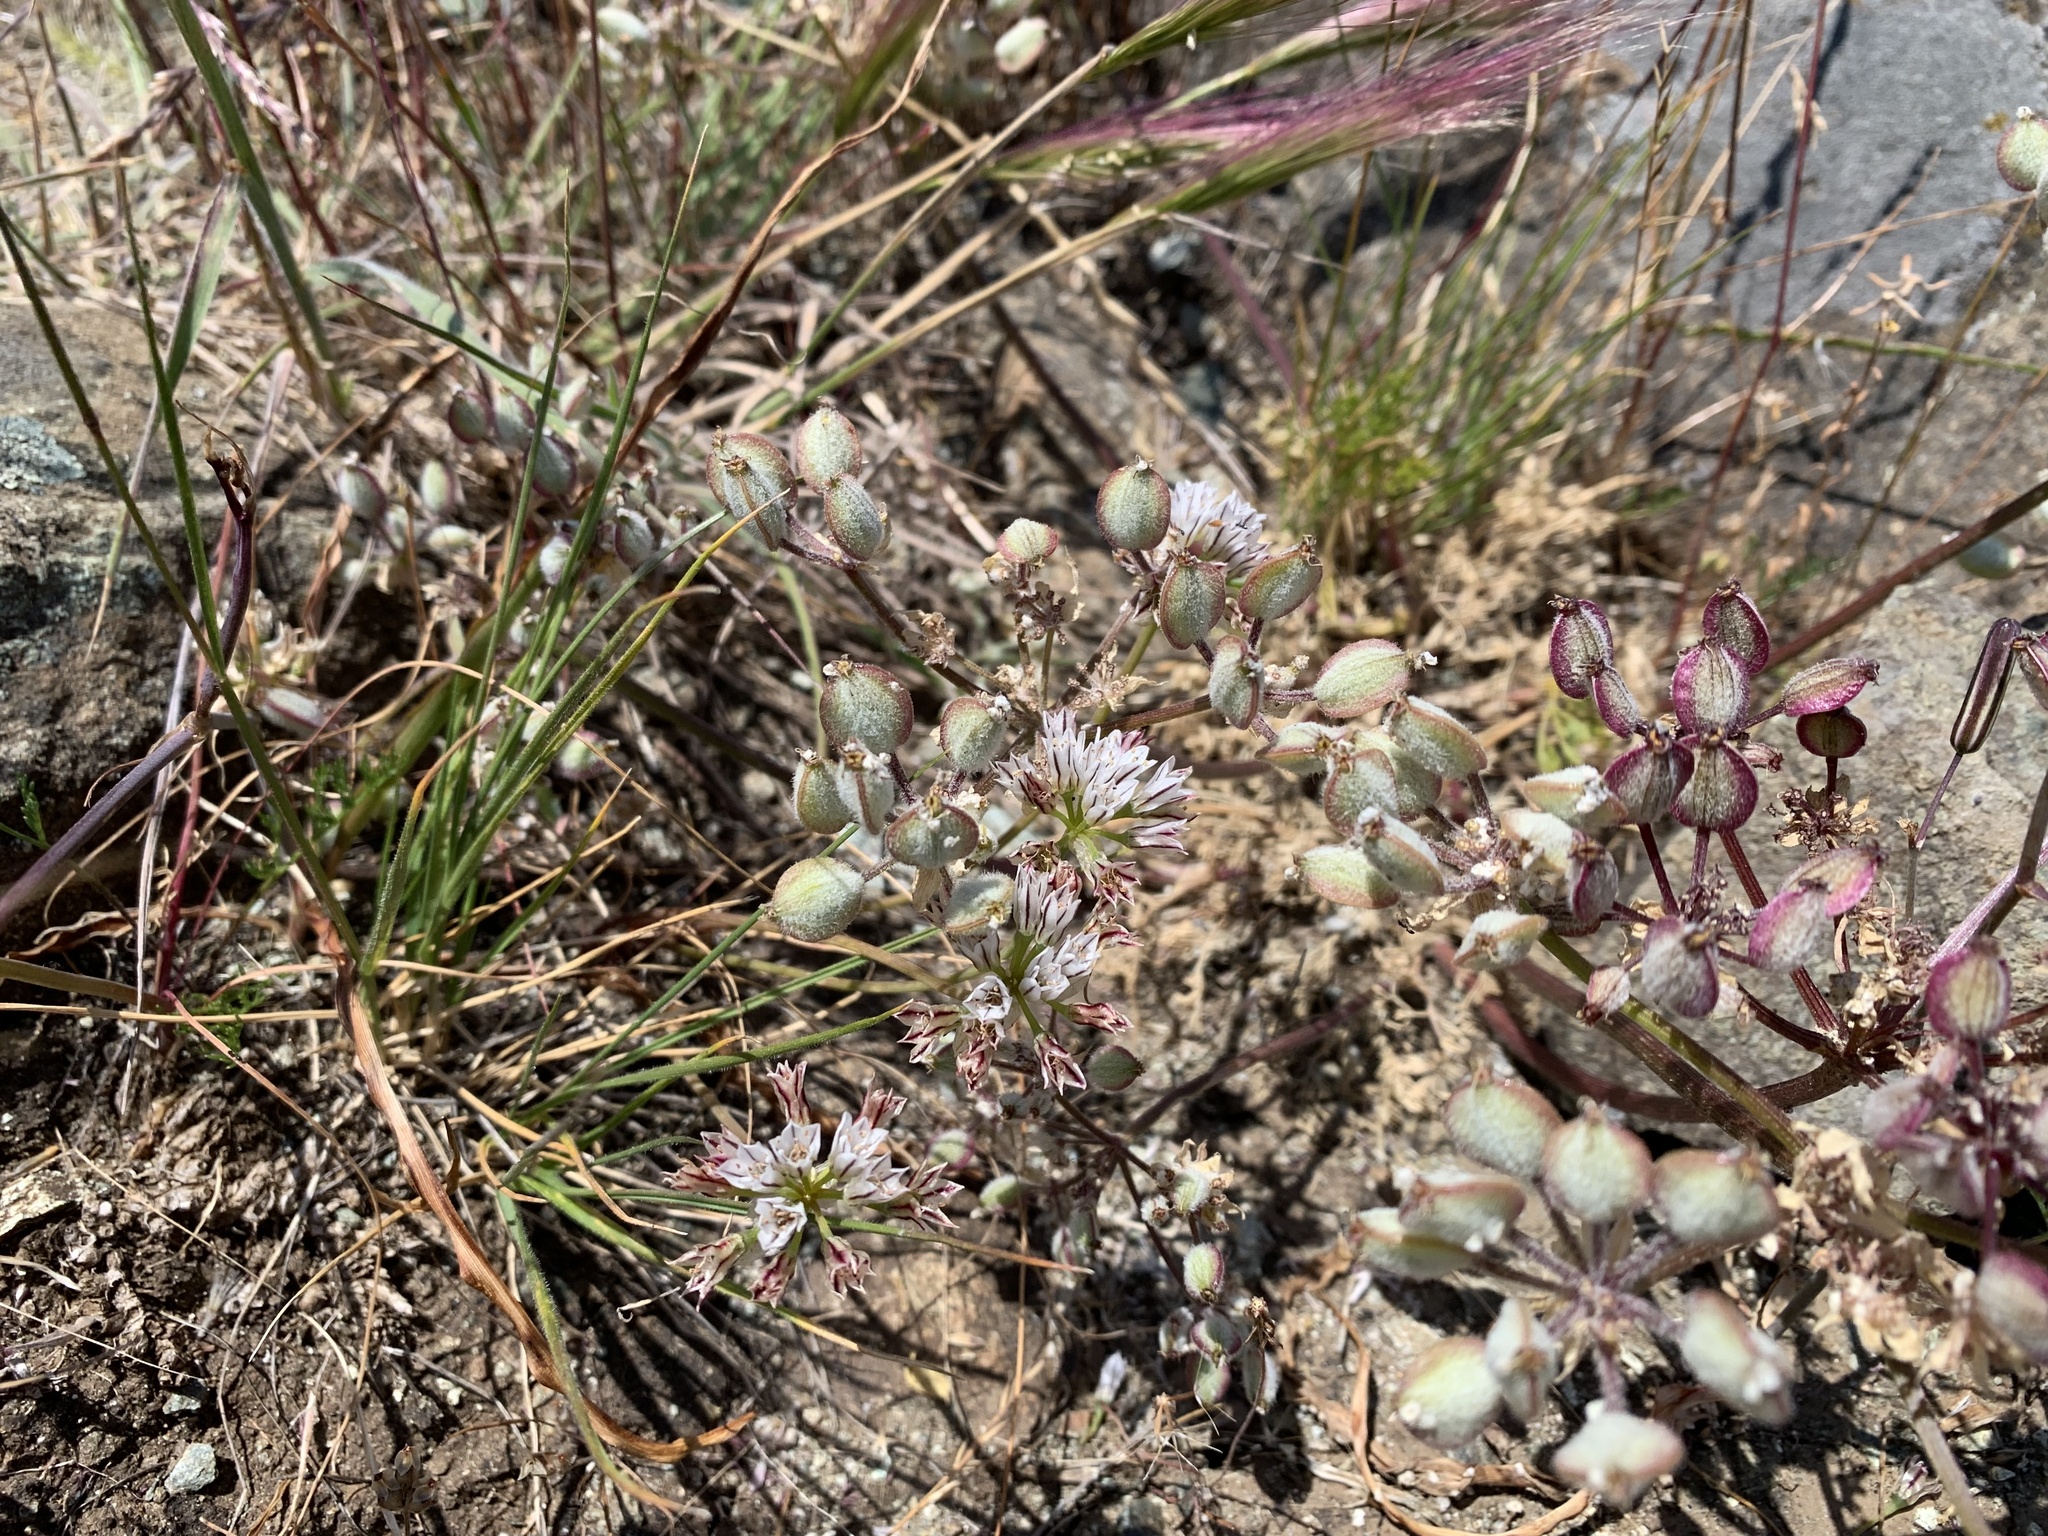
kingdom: Plantae
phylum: Tracheophyta
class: Liliopsida
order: Asparagales
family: Amaryllidaceae
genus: Allium
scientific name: Allium lacunosum
